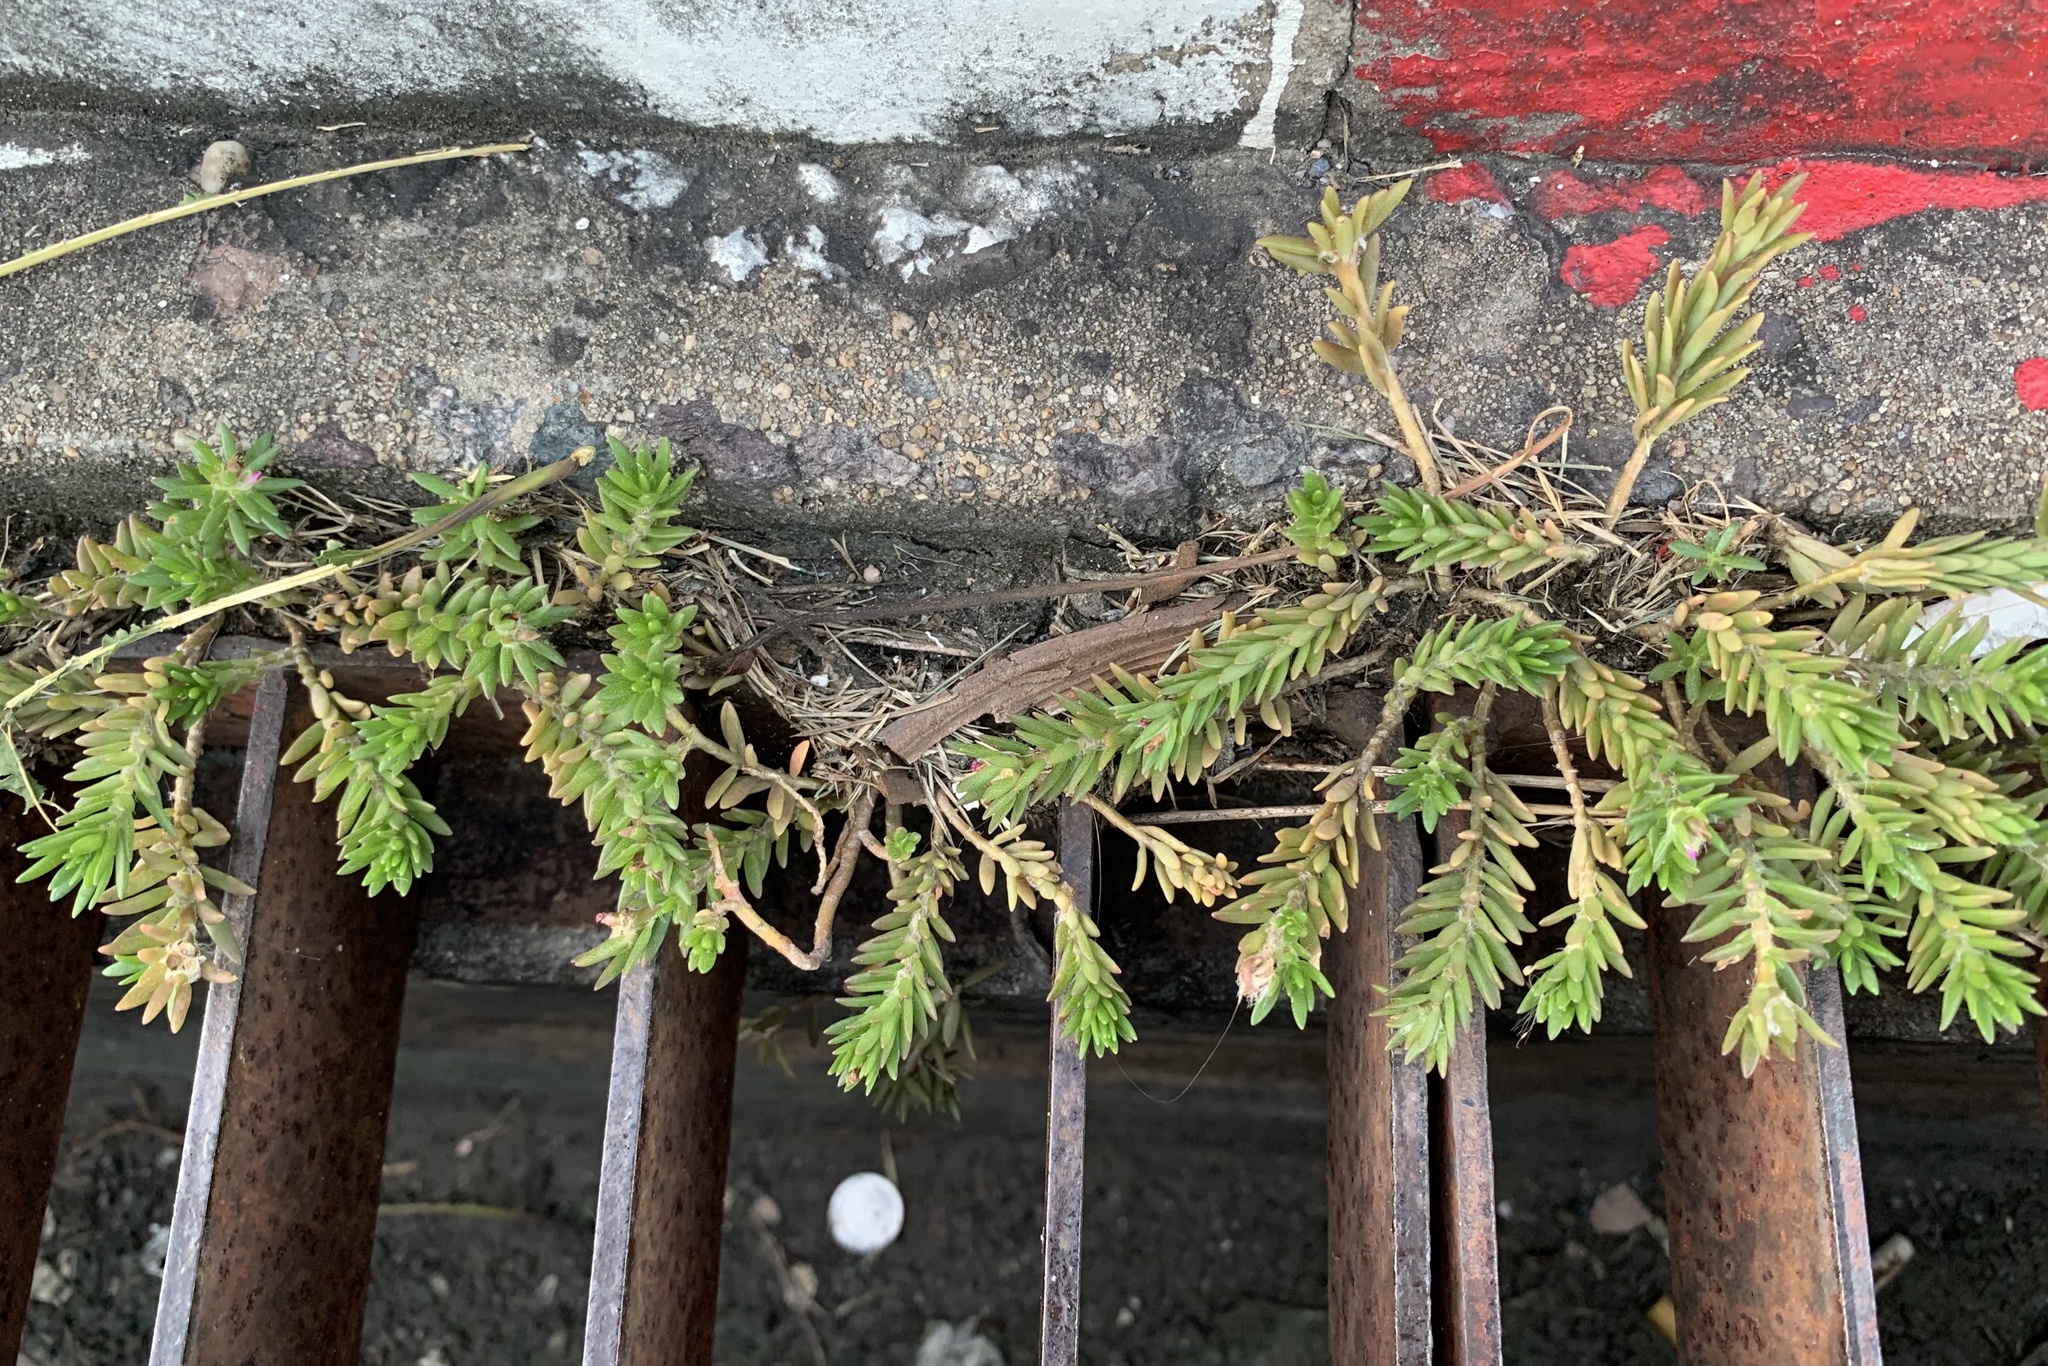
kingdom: Plantae
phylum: Tracheophyta
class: Magnoliopsida
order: Caryophyllales
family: Portulacaceae
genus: Portulaca
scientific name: Portulaca pilosa
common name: Kiss me quick
